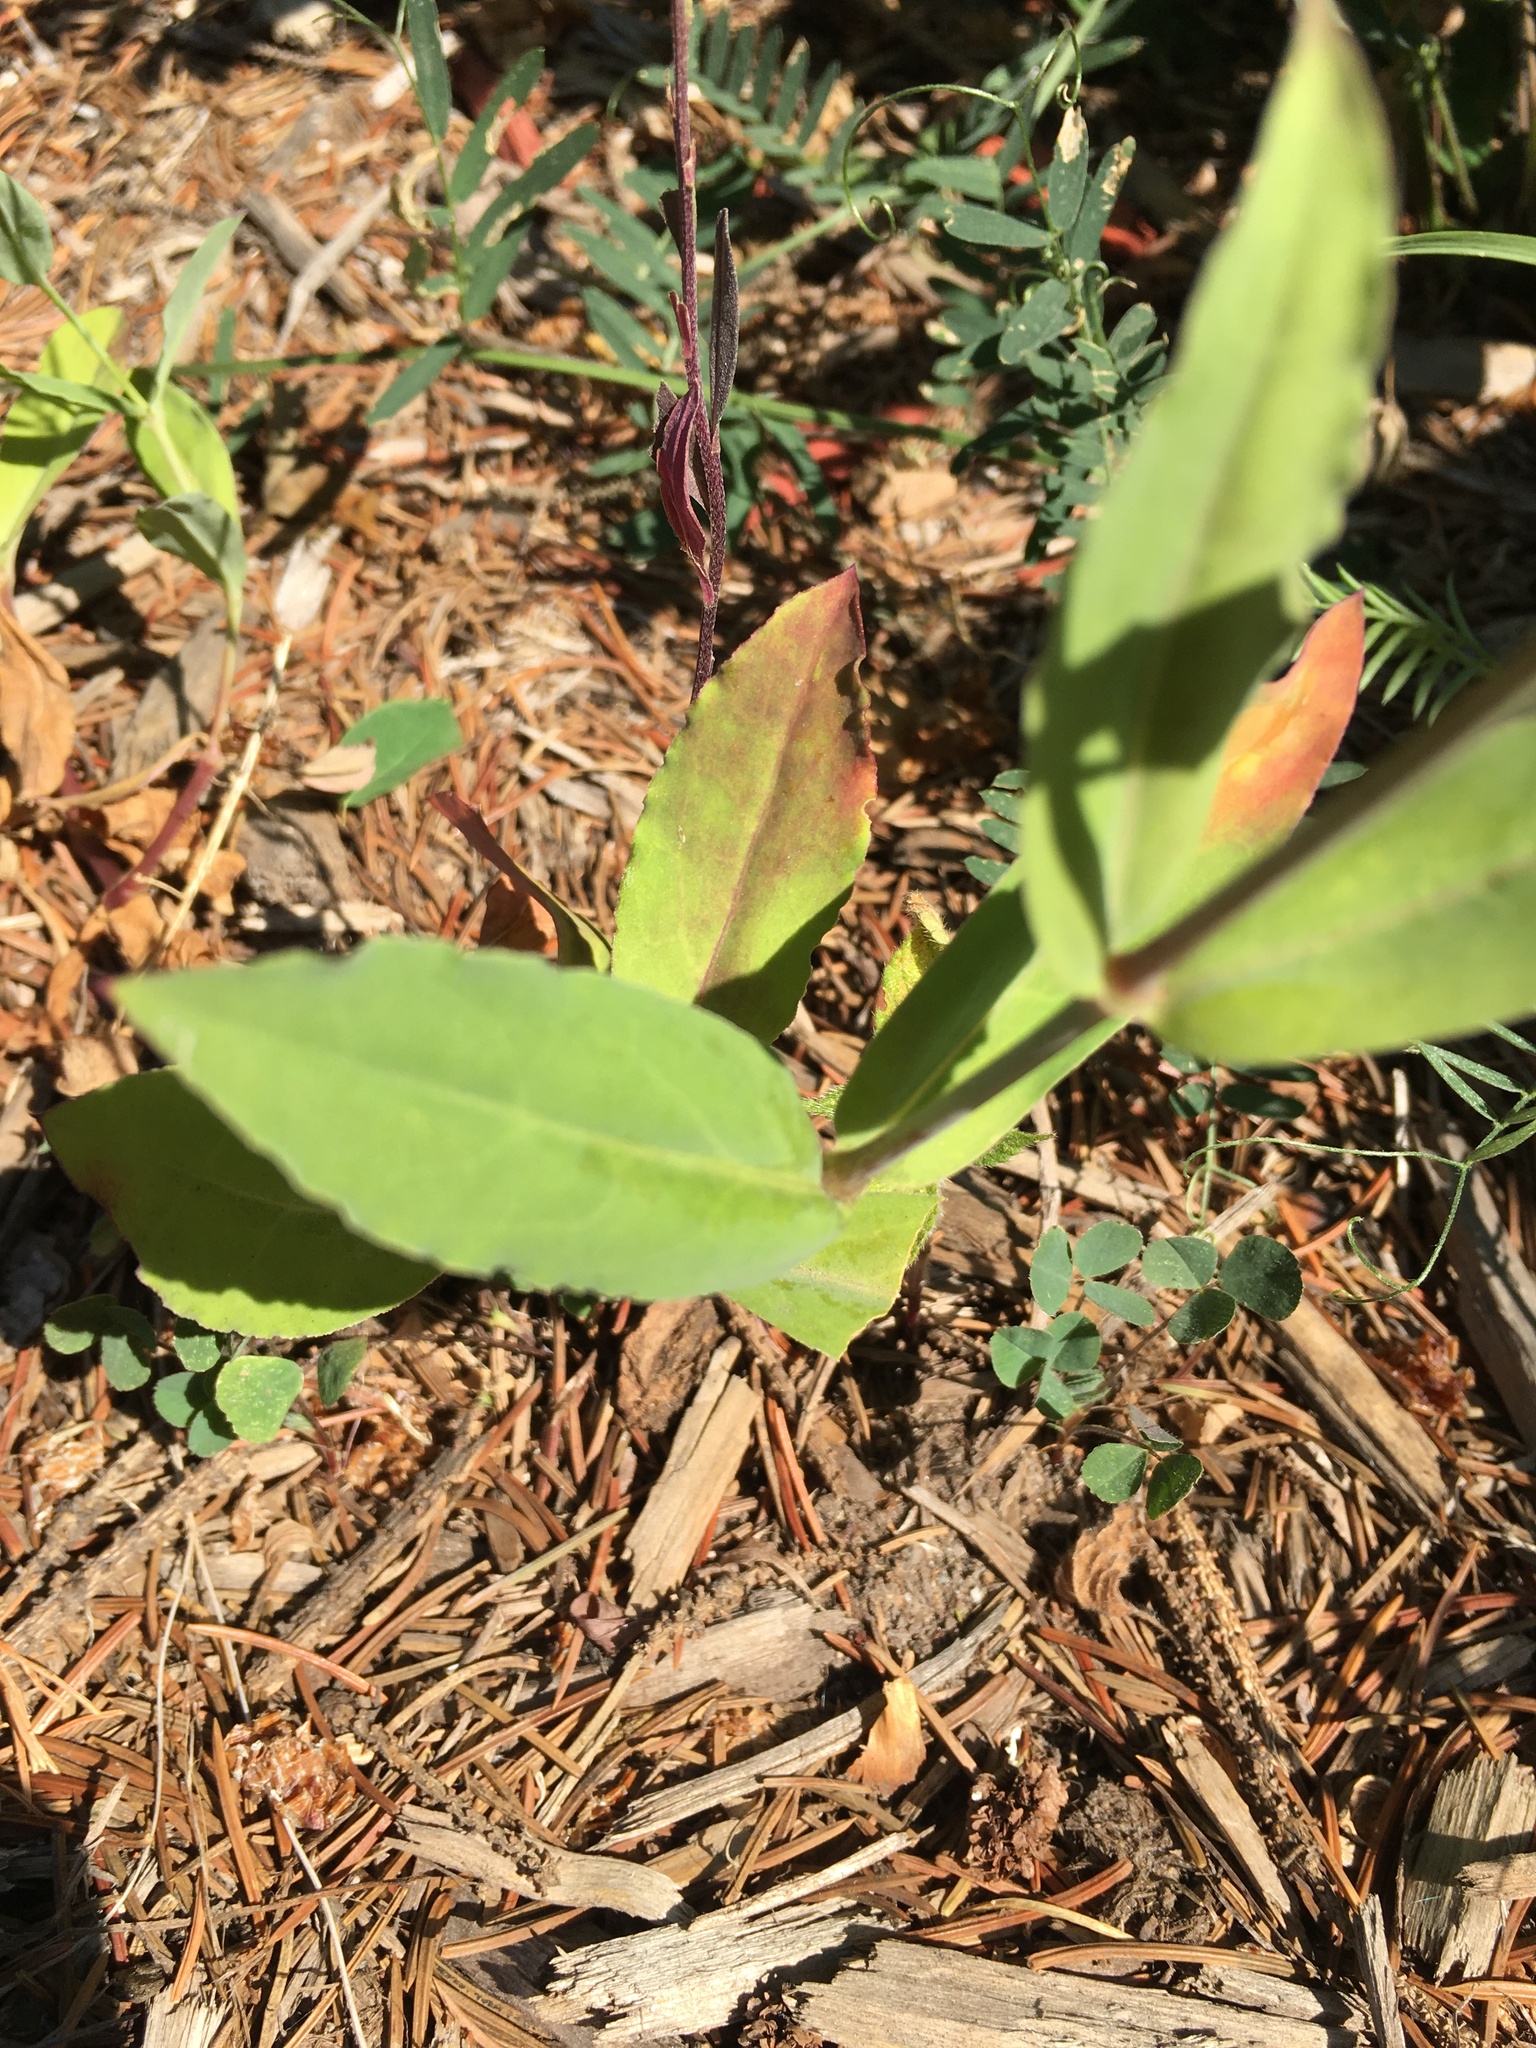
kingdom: Plantae
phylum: Tracheophyta
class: Magnoliopsida
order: Caryophyllales
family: Caryophyllaceae
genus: Silene
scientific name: Silene vulgaris
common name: Bladder campion
